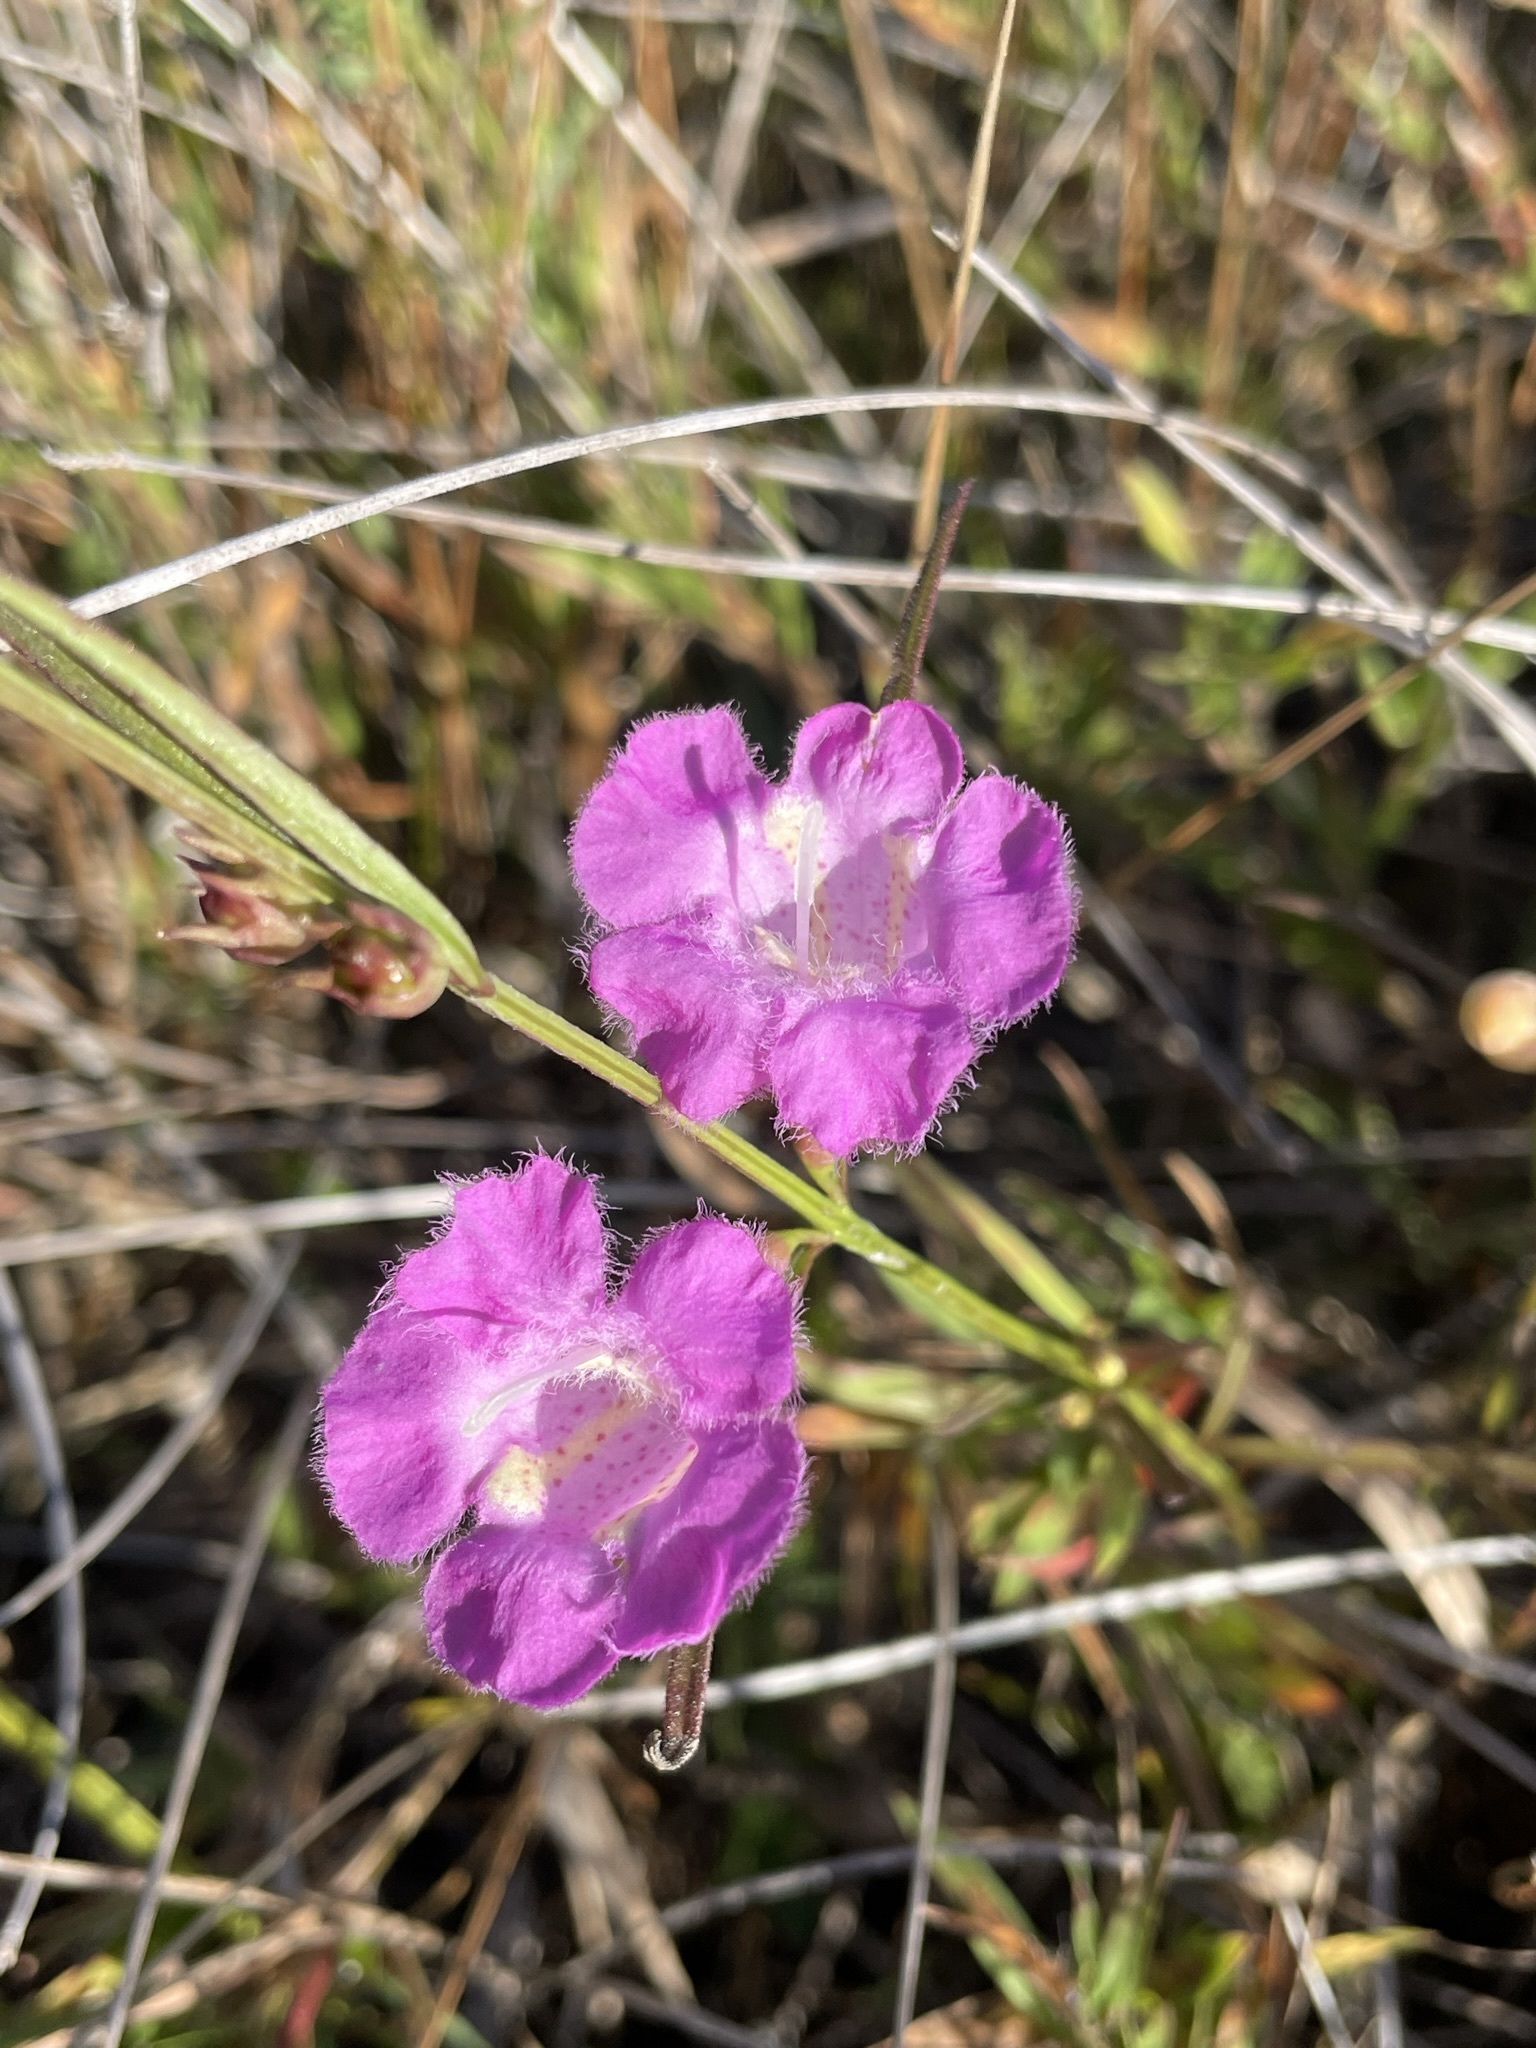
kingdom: Plantae
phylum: Tracheophyta
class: Magnoliopsida
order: Lamiales
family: Orobanchaceae
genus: Agalinis
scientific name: Agalinis purpurea
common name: Purple false foxglove
